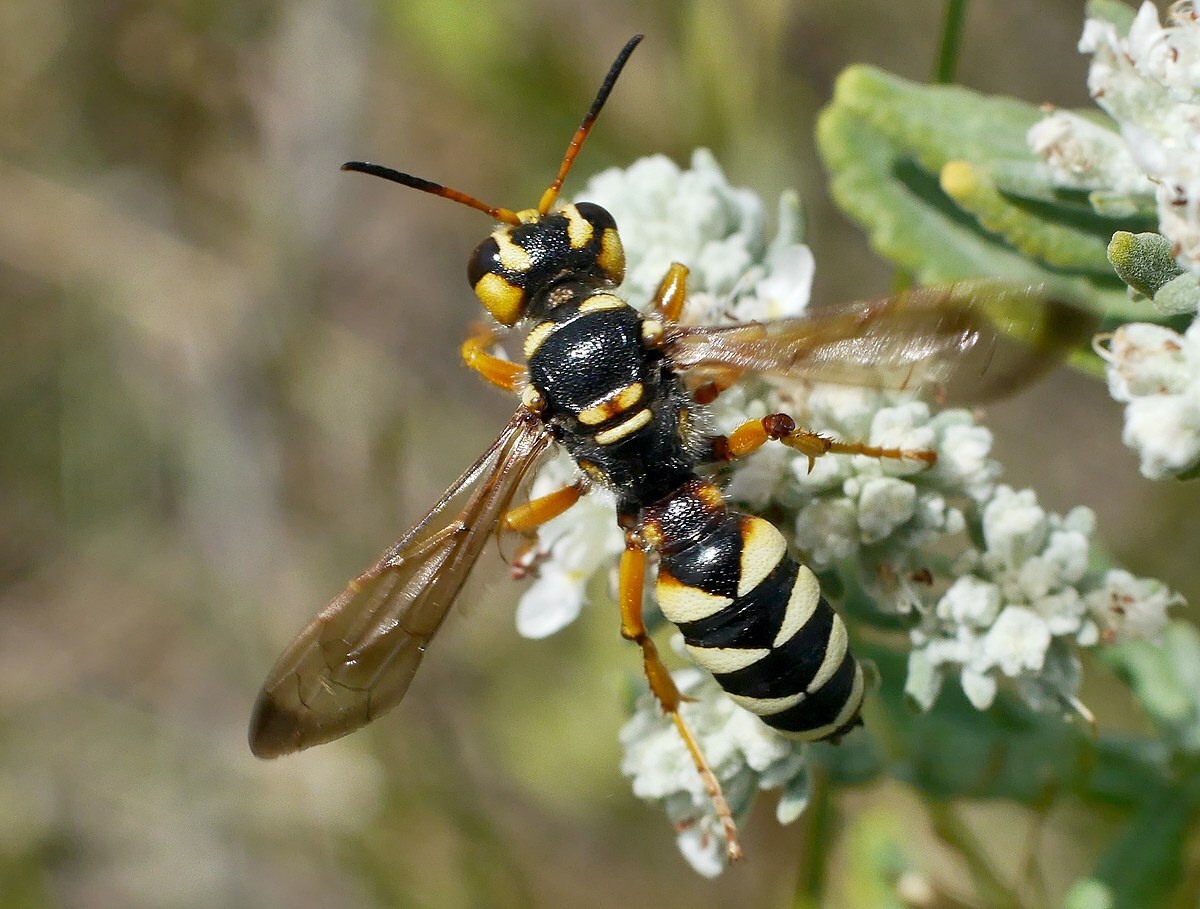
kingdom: Animalia
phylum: Arthropoda
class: Insecta
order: Hymenoptera
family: Crabronidae
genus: Cerceris
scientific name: Cerceris tuberculata
